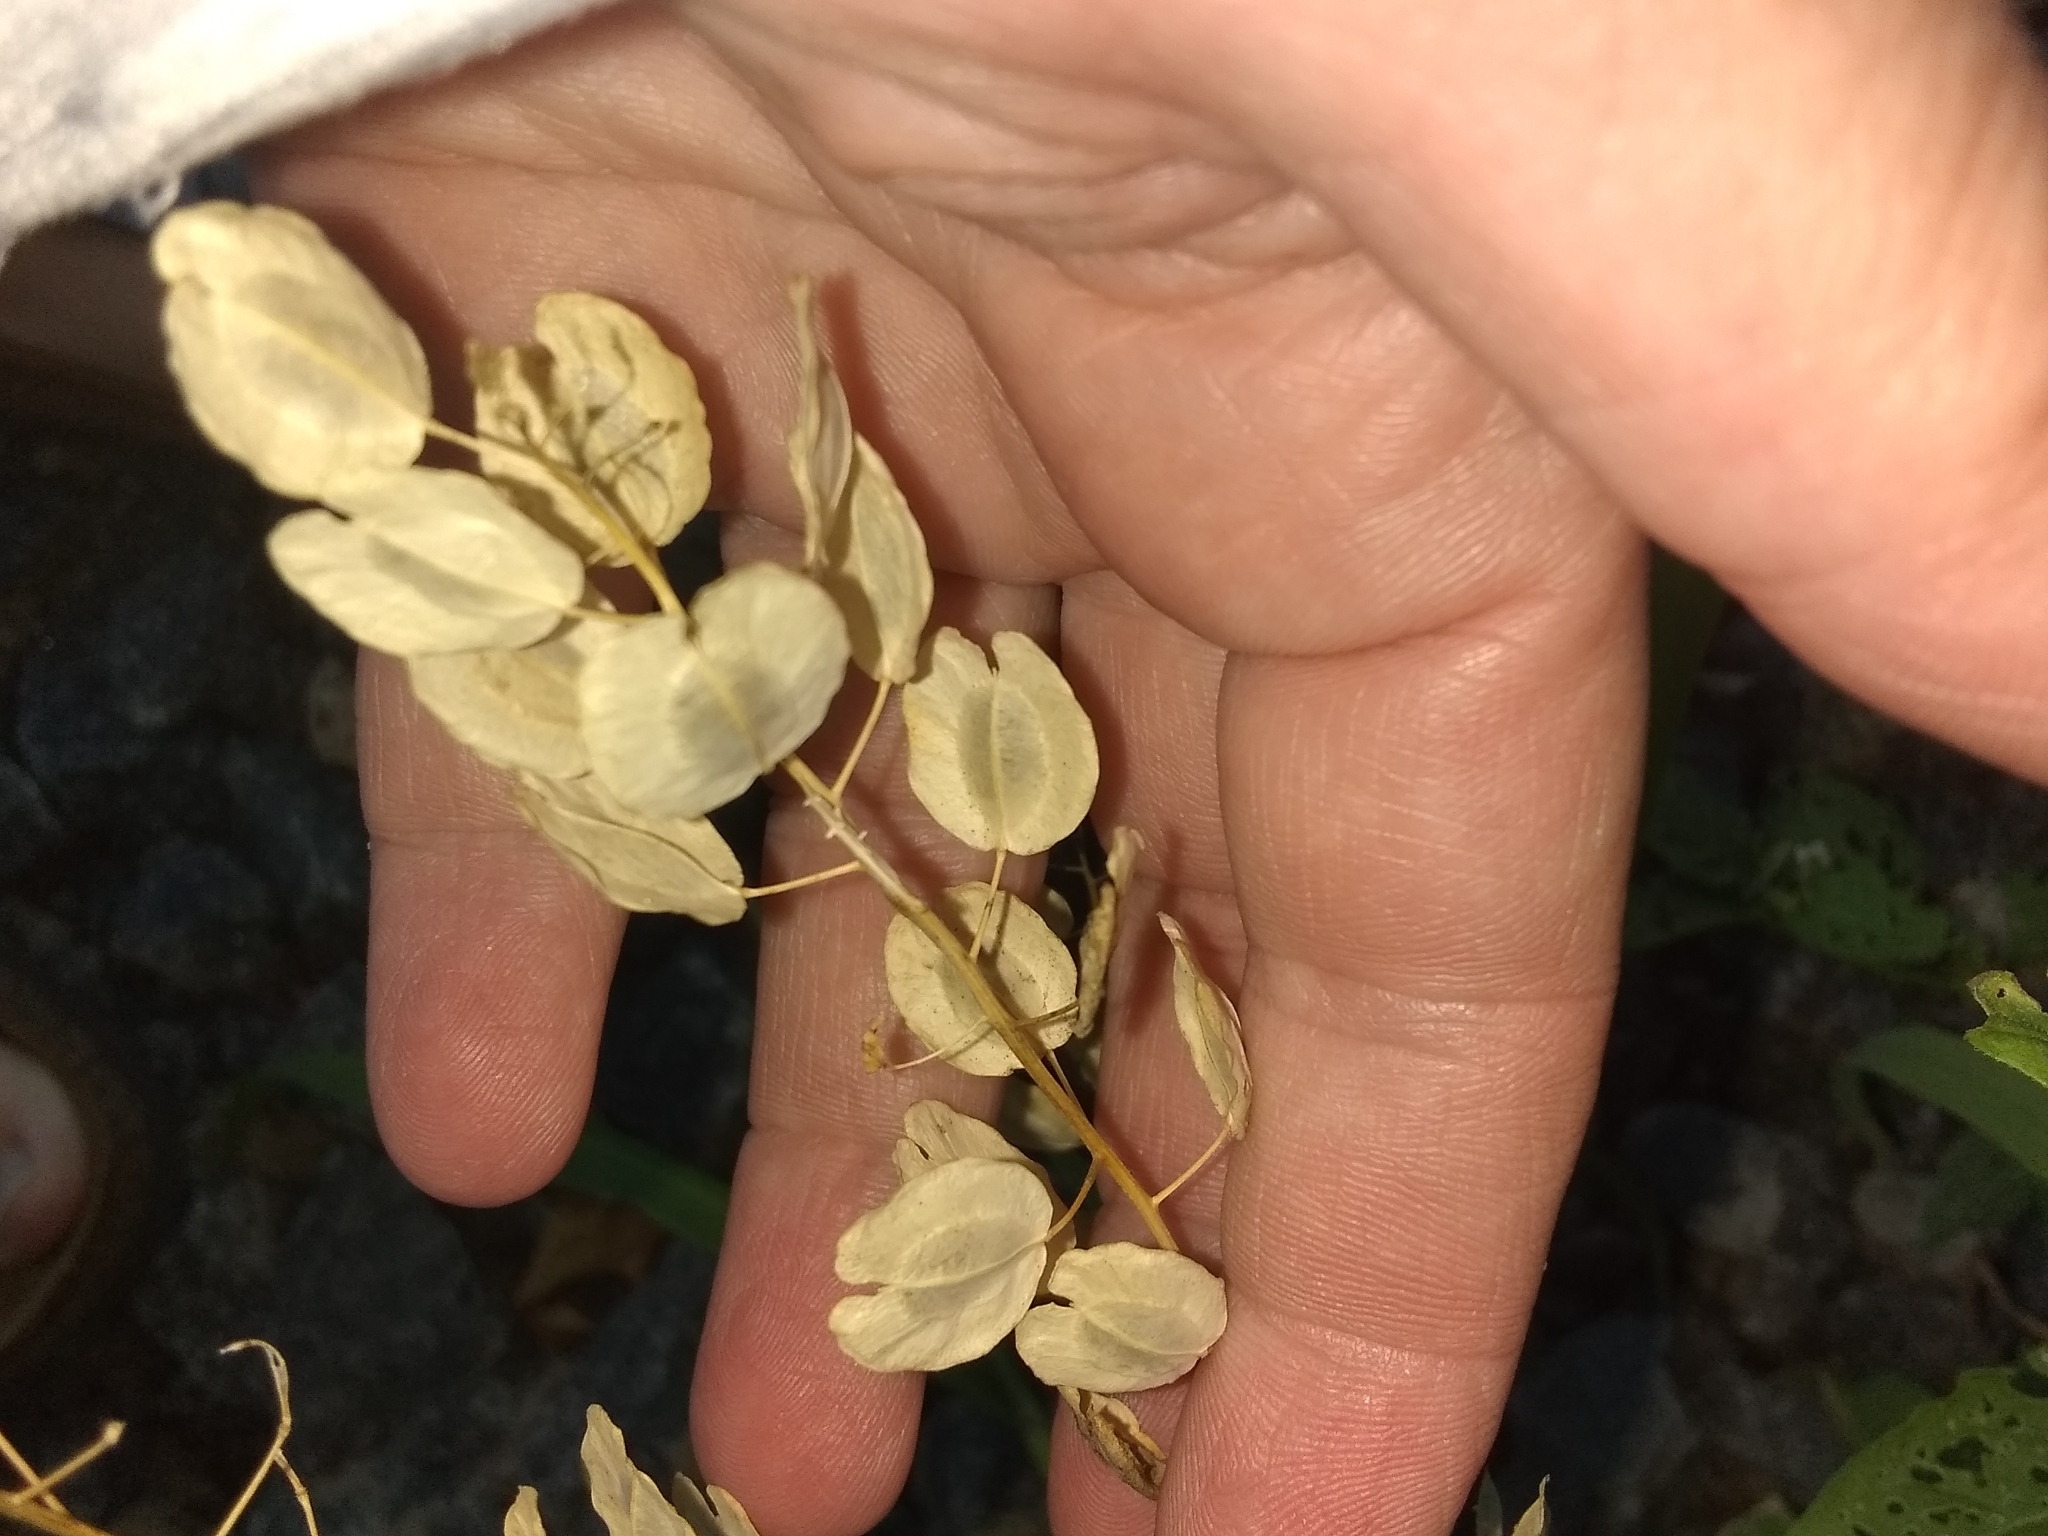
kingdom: Plantae
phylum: Tracheophyta
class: Magnoliopsida
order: Brassicales
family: Brassicaceae
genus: Thlaspi
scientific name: Thlaspi arvense
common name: Field pennycress
